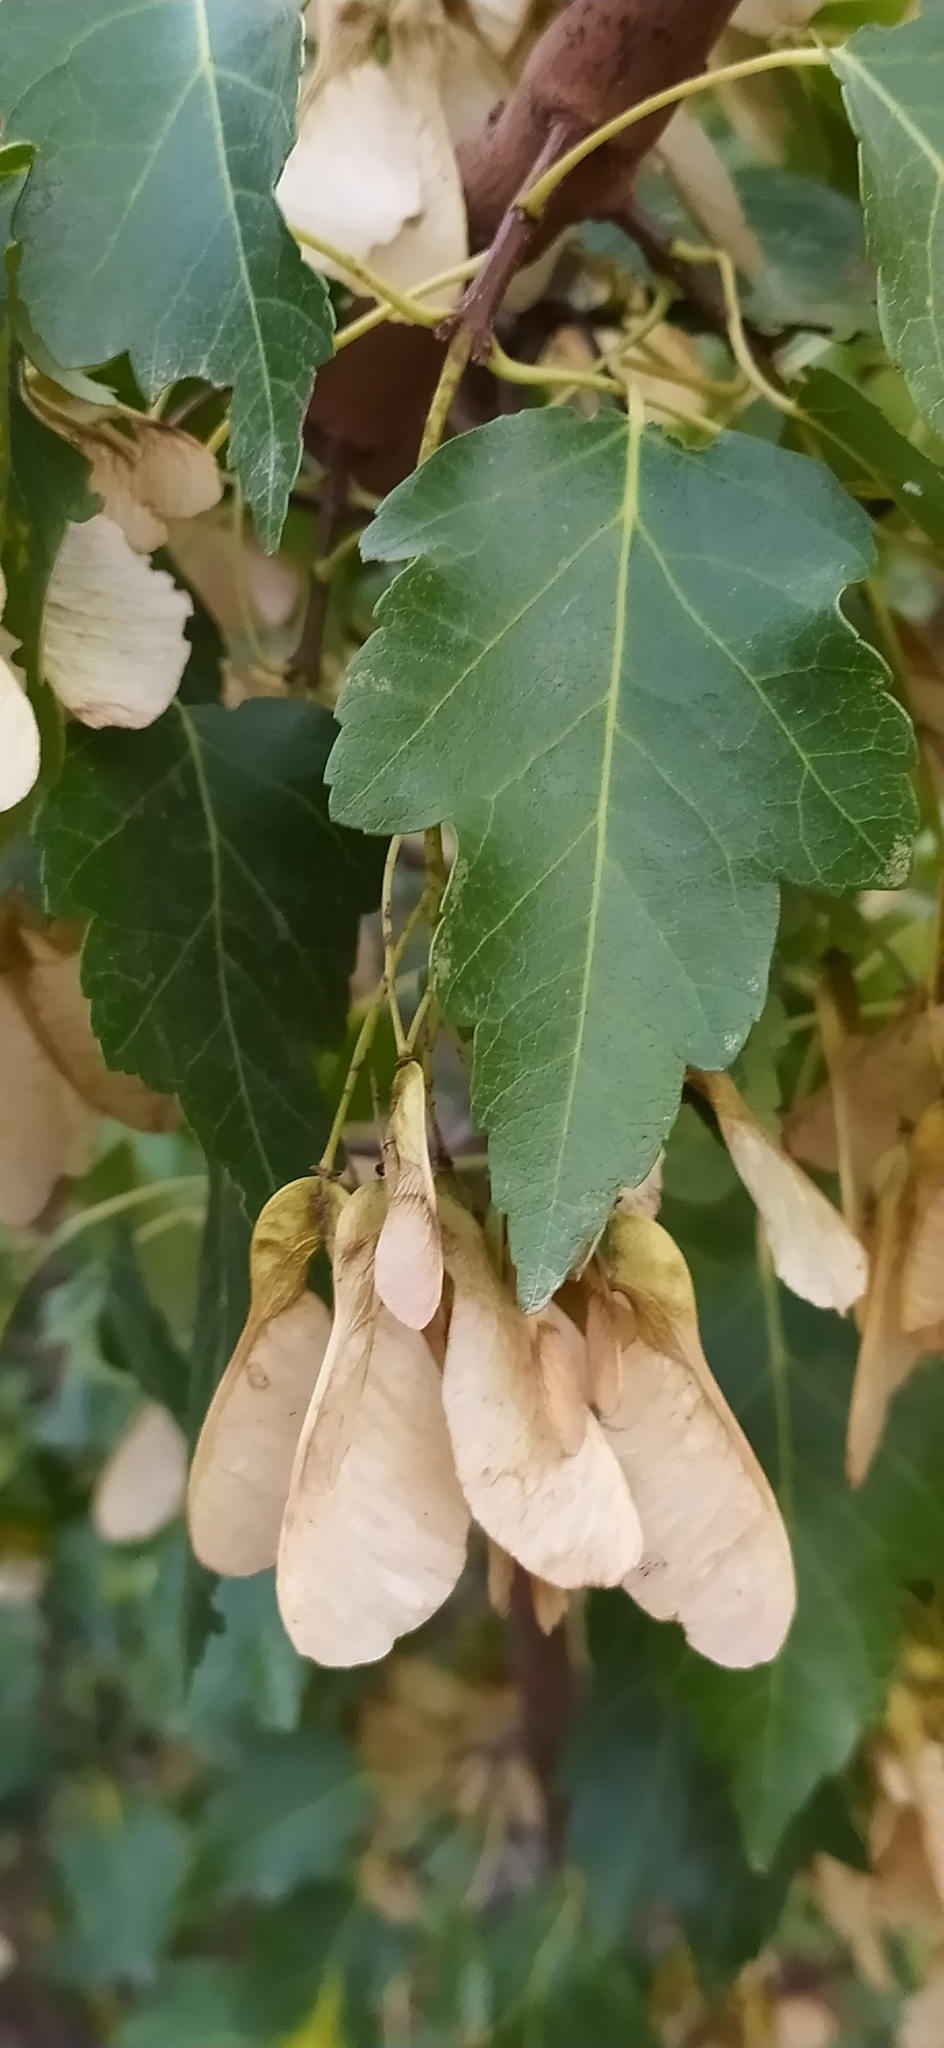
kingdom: Plantae
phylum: Tracheophyta
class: Magnoliopsida
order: Sapindales
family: Sapindaceae
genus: Acer
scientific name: Acer tataricum
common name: Tartar maple
